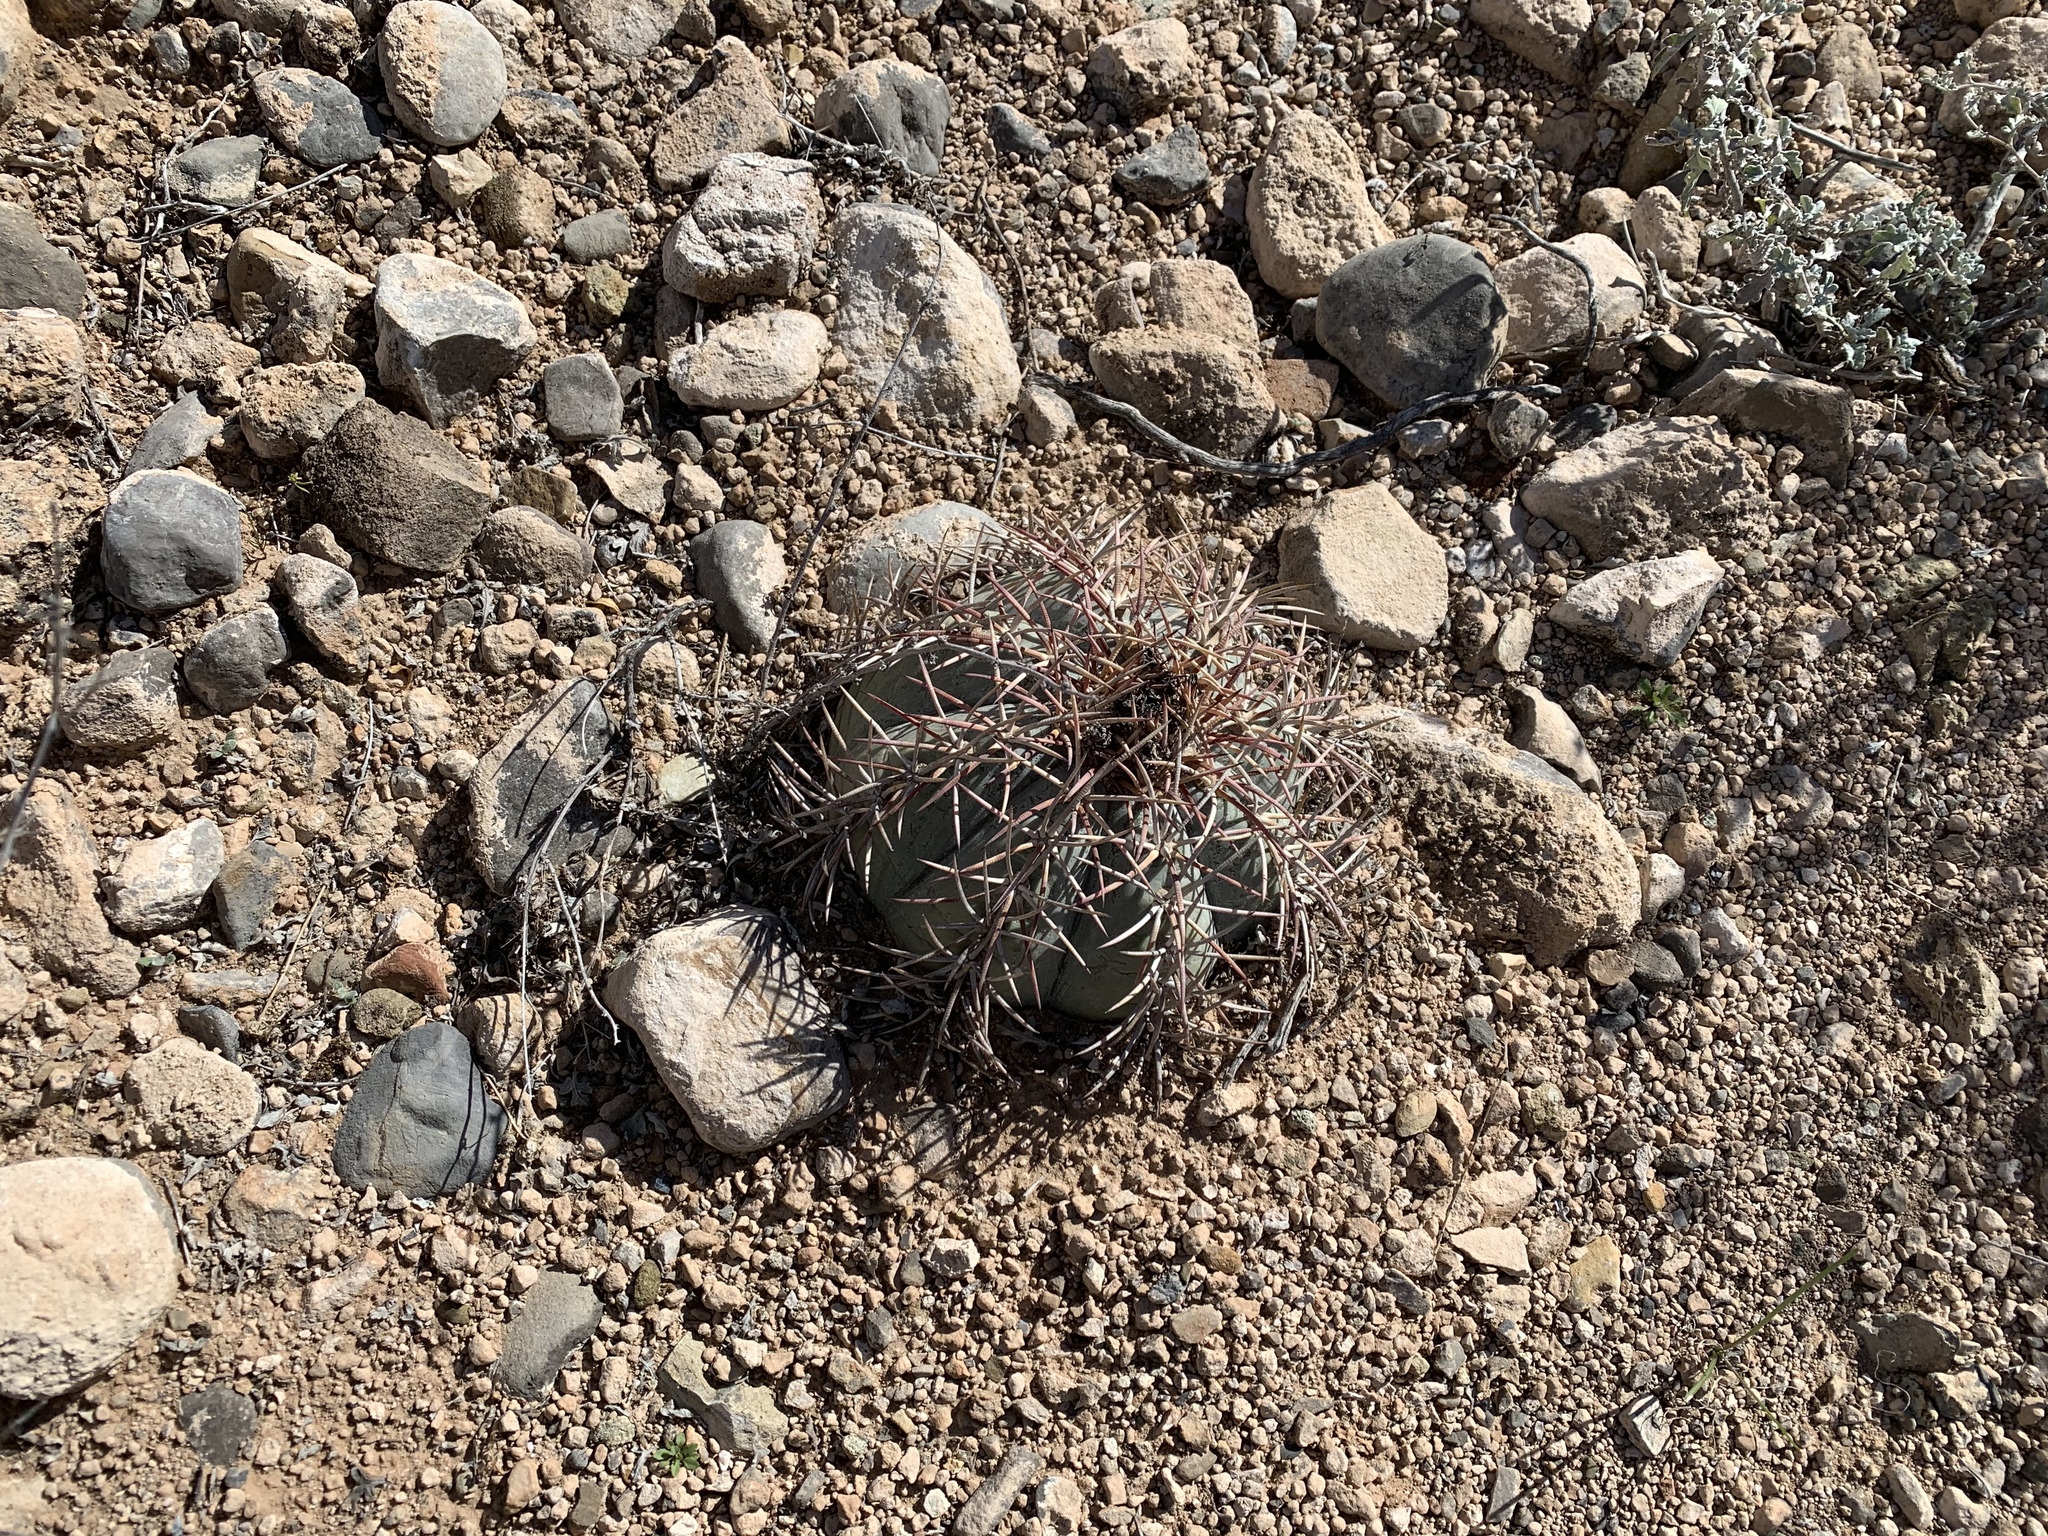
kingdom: Plantae
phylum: Tracheophyta
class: Magnoliopsida
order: Caryophyllales
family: Cactaceae
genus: Echinocactus
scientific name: Echinocactus horizonthalonius
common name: Devilshead
